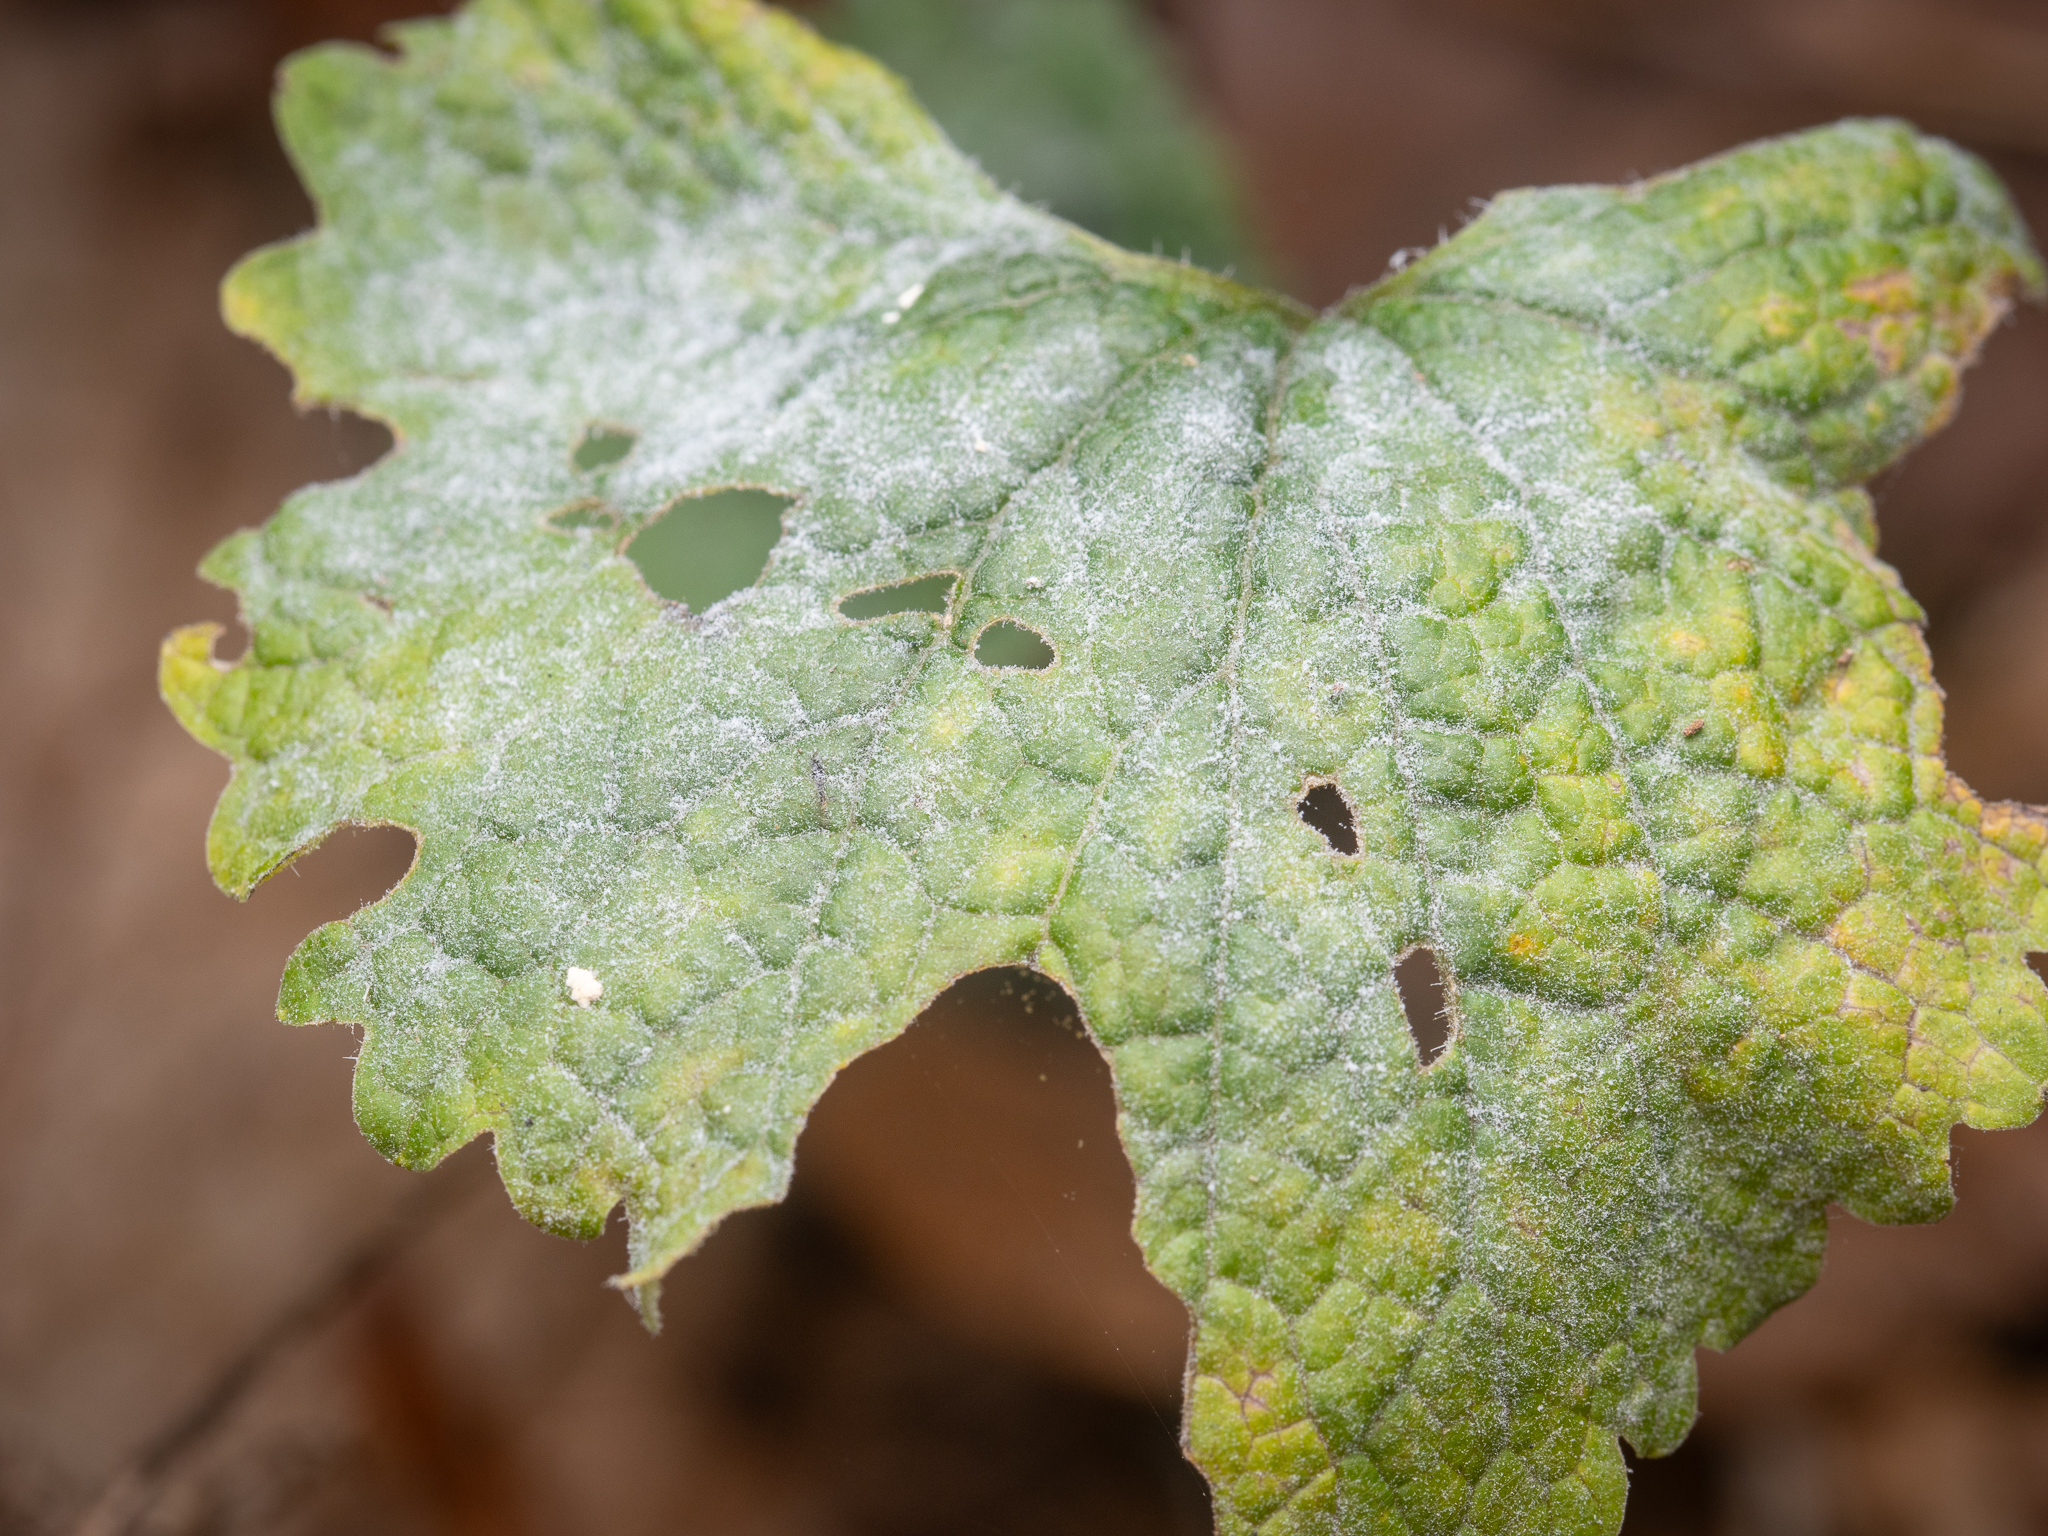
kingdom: Fungi
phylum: Ascomycota
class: Leotiomycetes
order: Helotiales
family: Erysiphaceae
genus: Erysiphe
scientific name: Erysiphe cruciferarum
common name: Brassica powdery mildew
